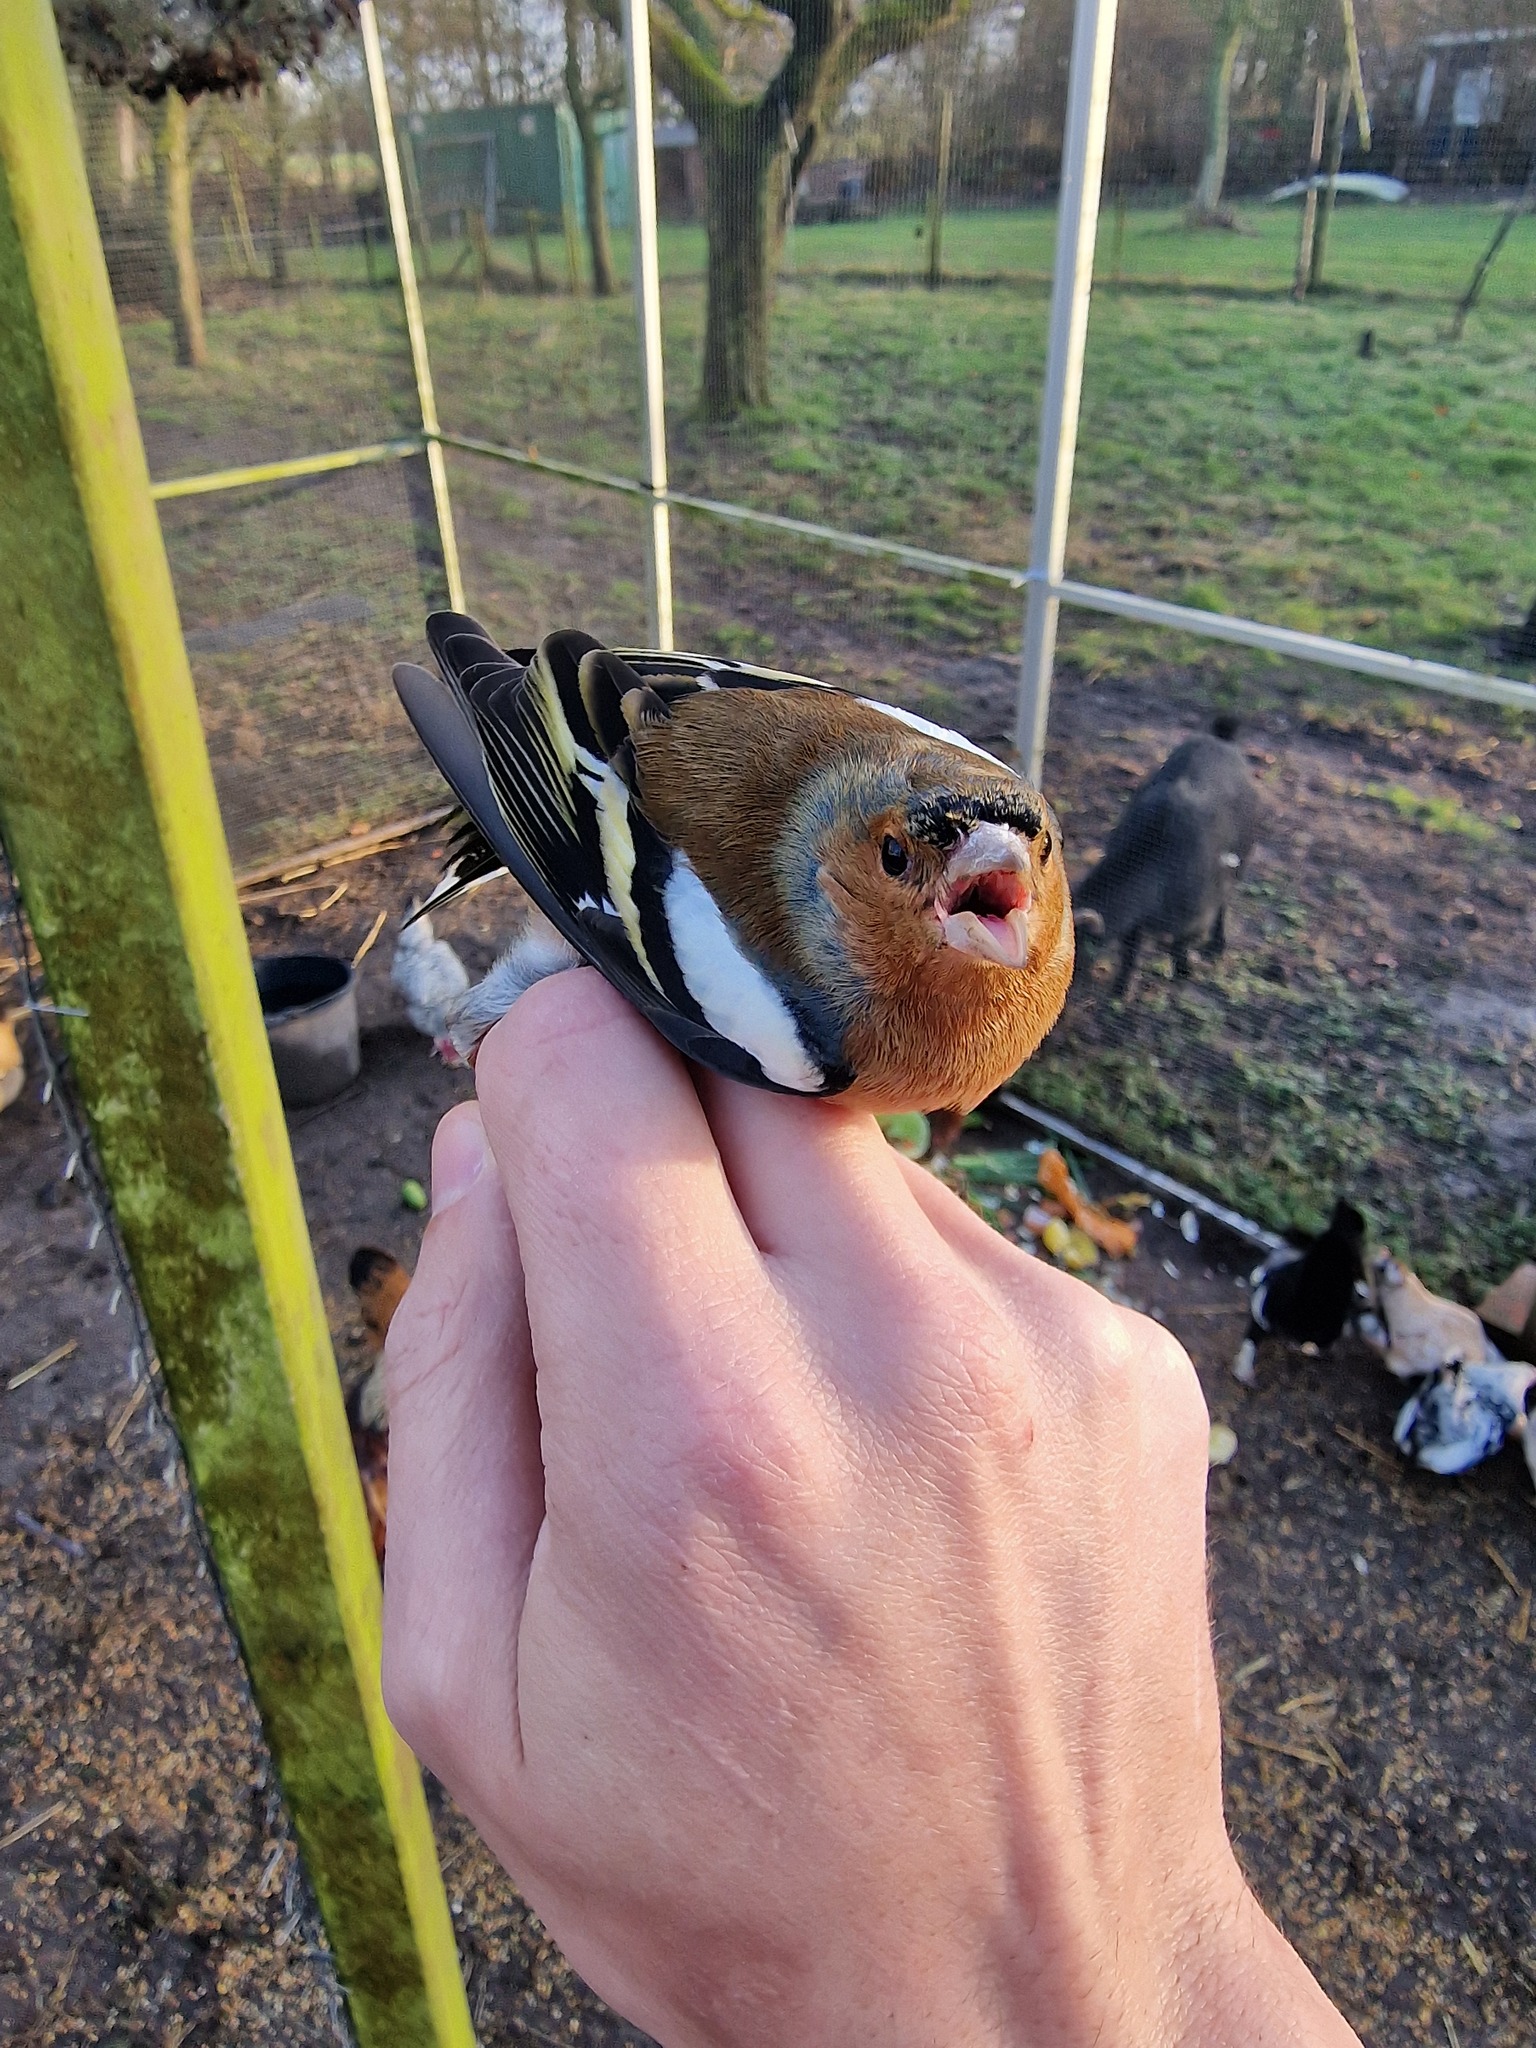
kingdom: Animalia
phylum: Chordata
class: Aves
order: Passeriformes
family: Fringillidae
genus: Fringilla
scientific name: Fringilla coelebs
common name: Common chaffinch
